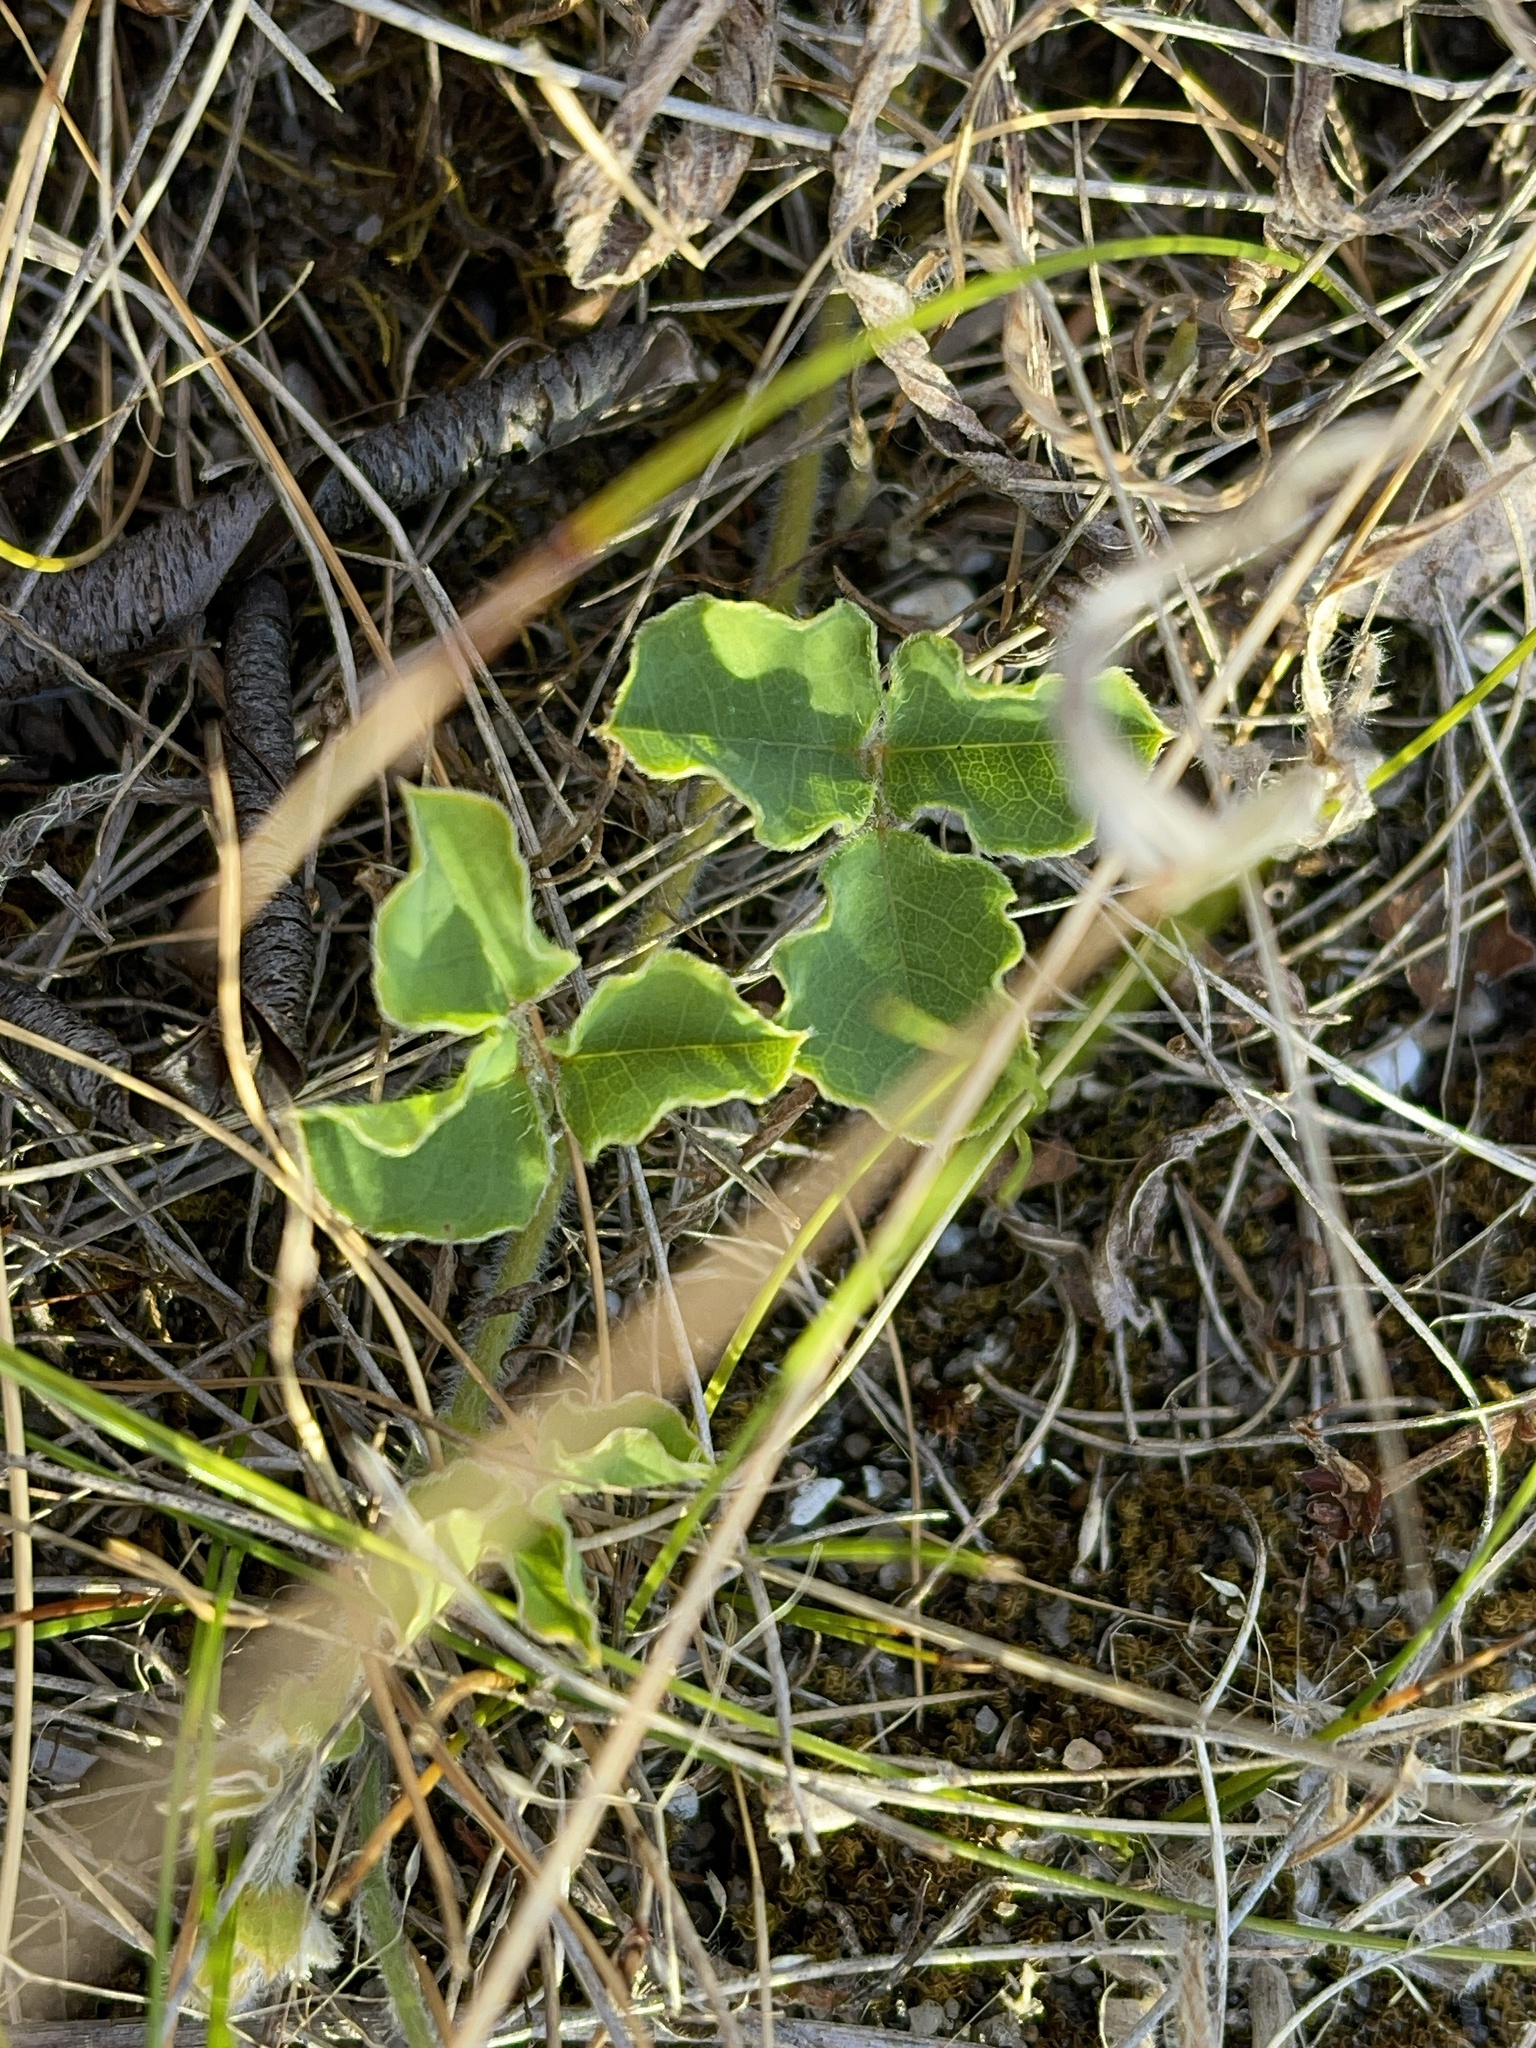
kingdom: Plantae
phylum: Tracheophyta
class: Magnoliopsida
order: Fabales
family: Fabaceae
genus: Kennedia
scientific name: Kennedia prostrata
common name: Running-postman
